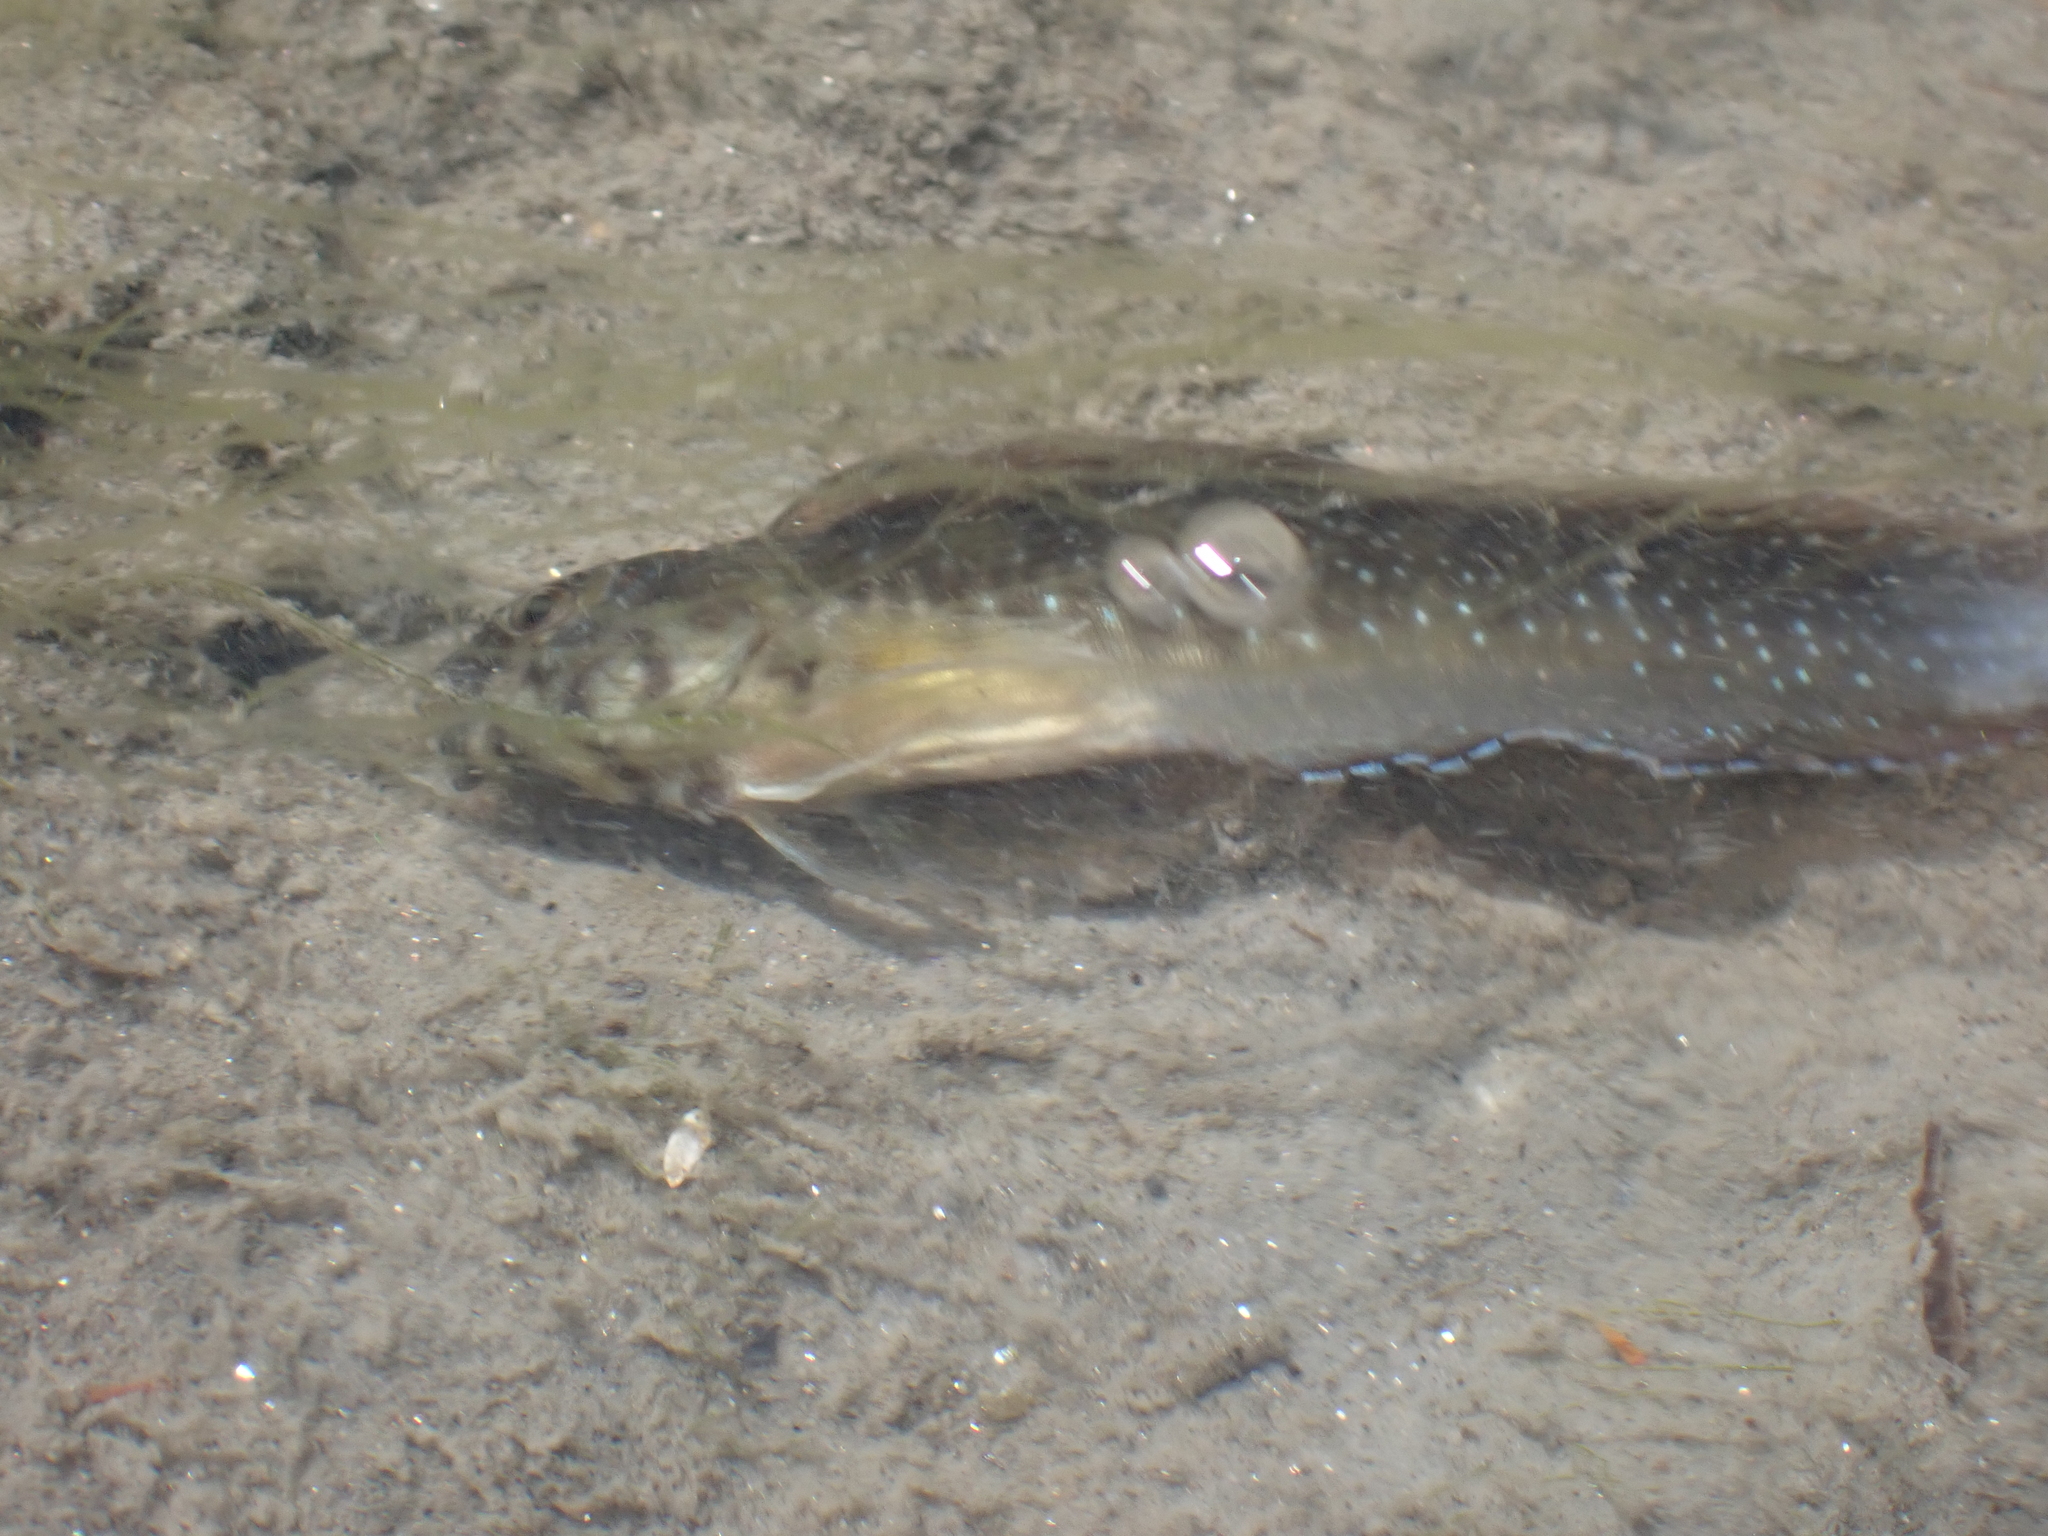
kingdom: Animalia
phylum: Chordata
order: Perciformes
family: Blenniidae
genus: Salaria
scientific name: Salaria pavo
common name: Peacock blenny
